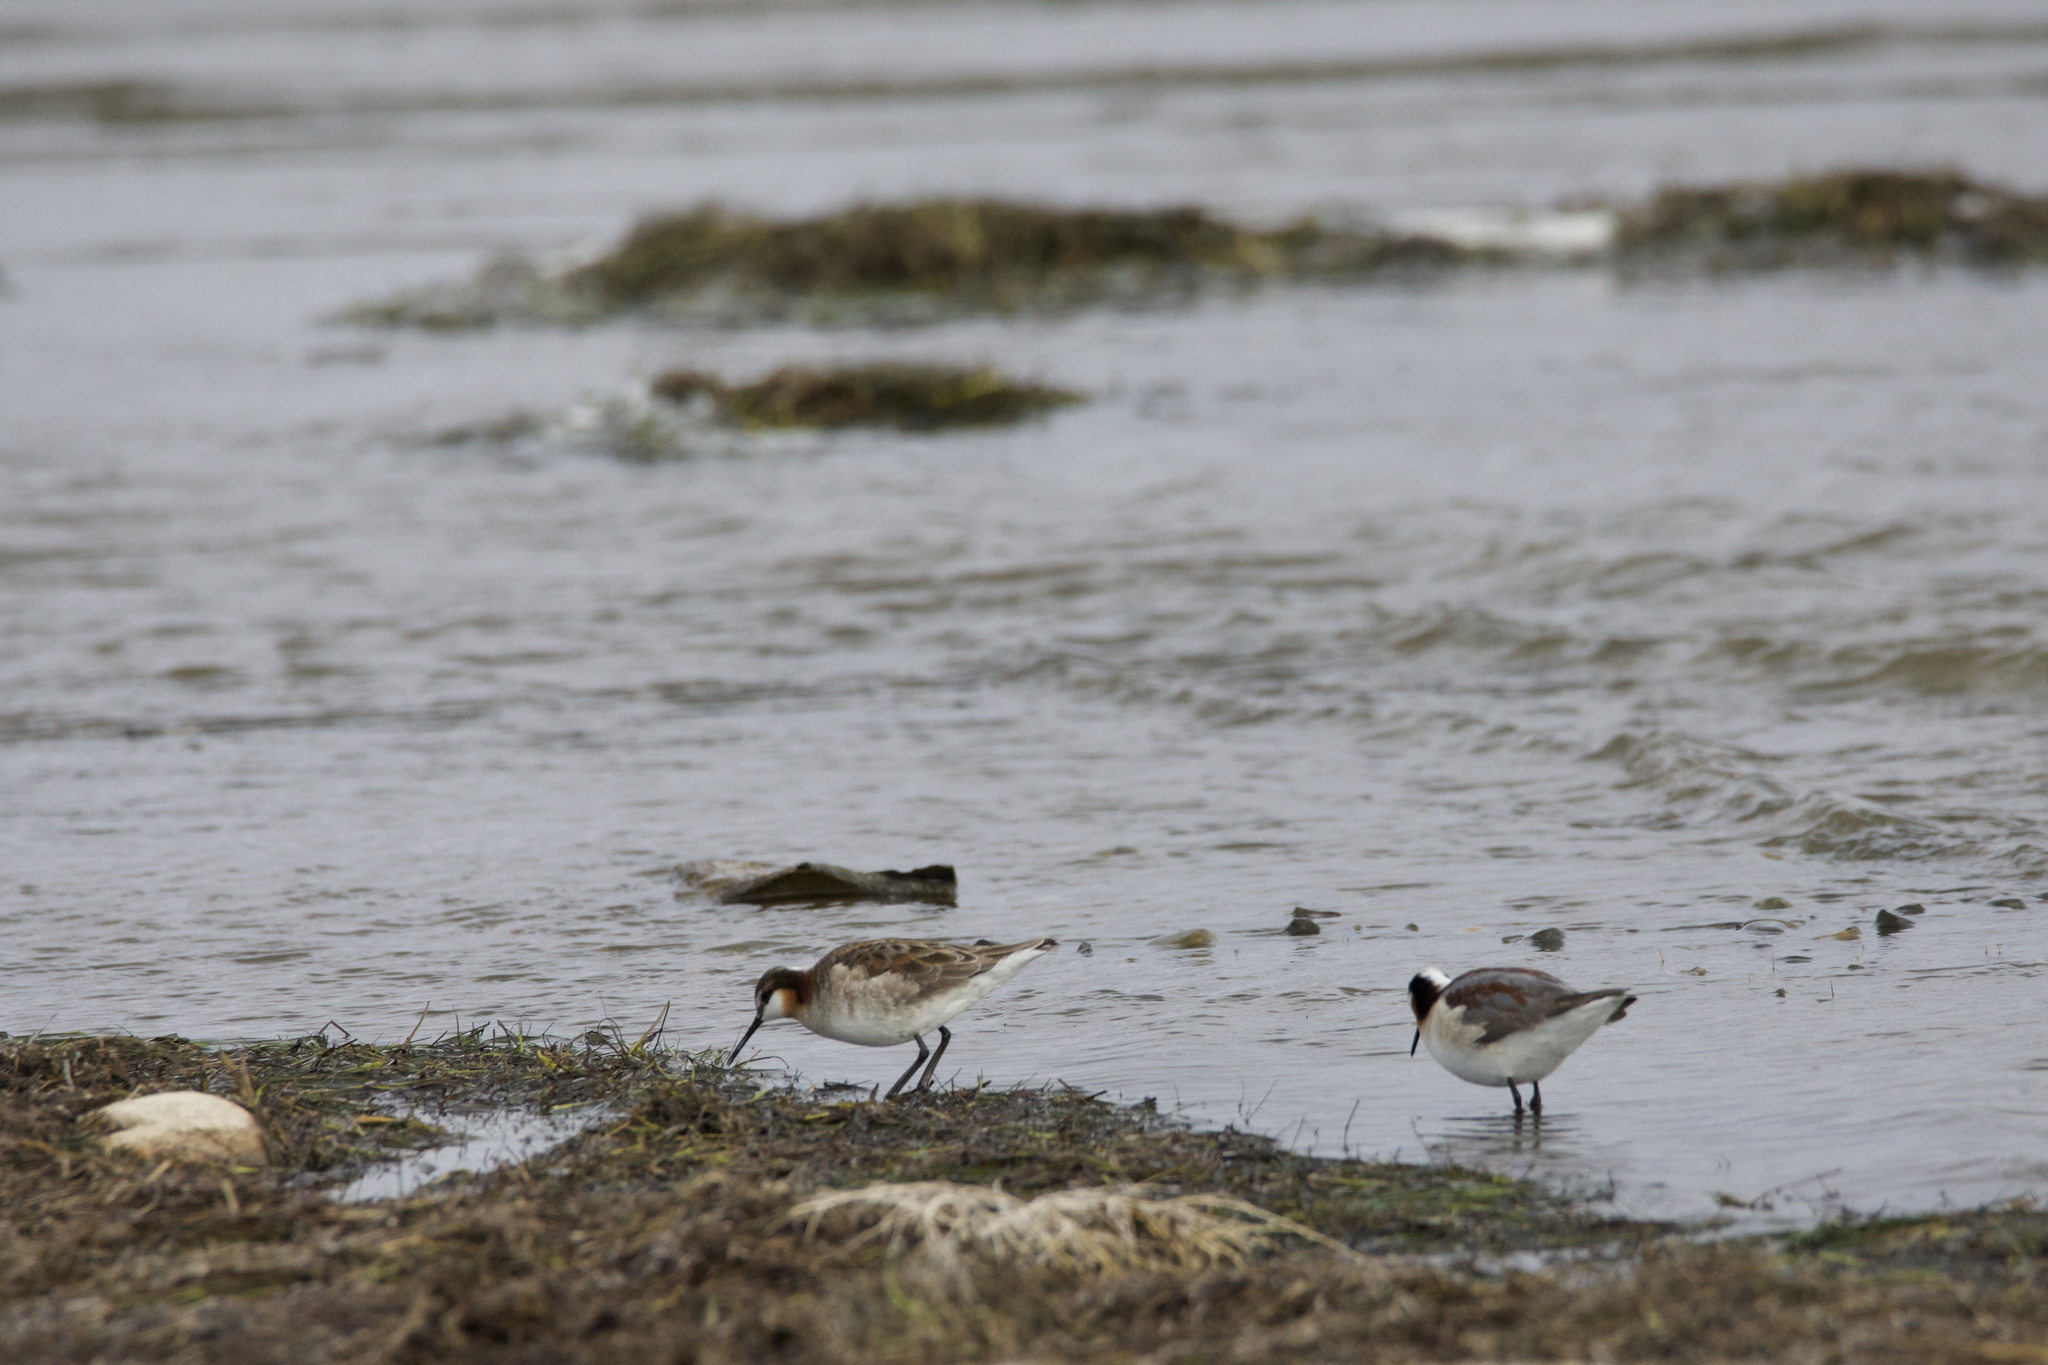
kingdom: Animalia
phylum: Chordata
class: Aves
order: Charadriiformes
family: Scolopacidae
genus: Phalaropus
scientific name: Phalaropus tricolor
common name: Wilson's phalarope
